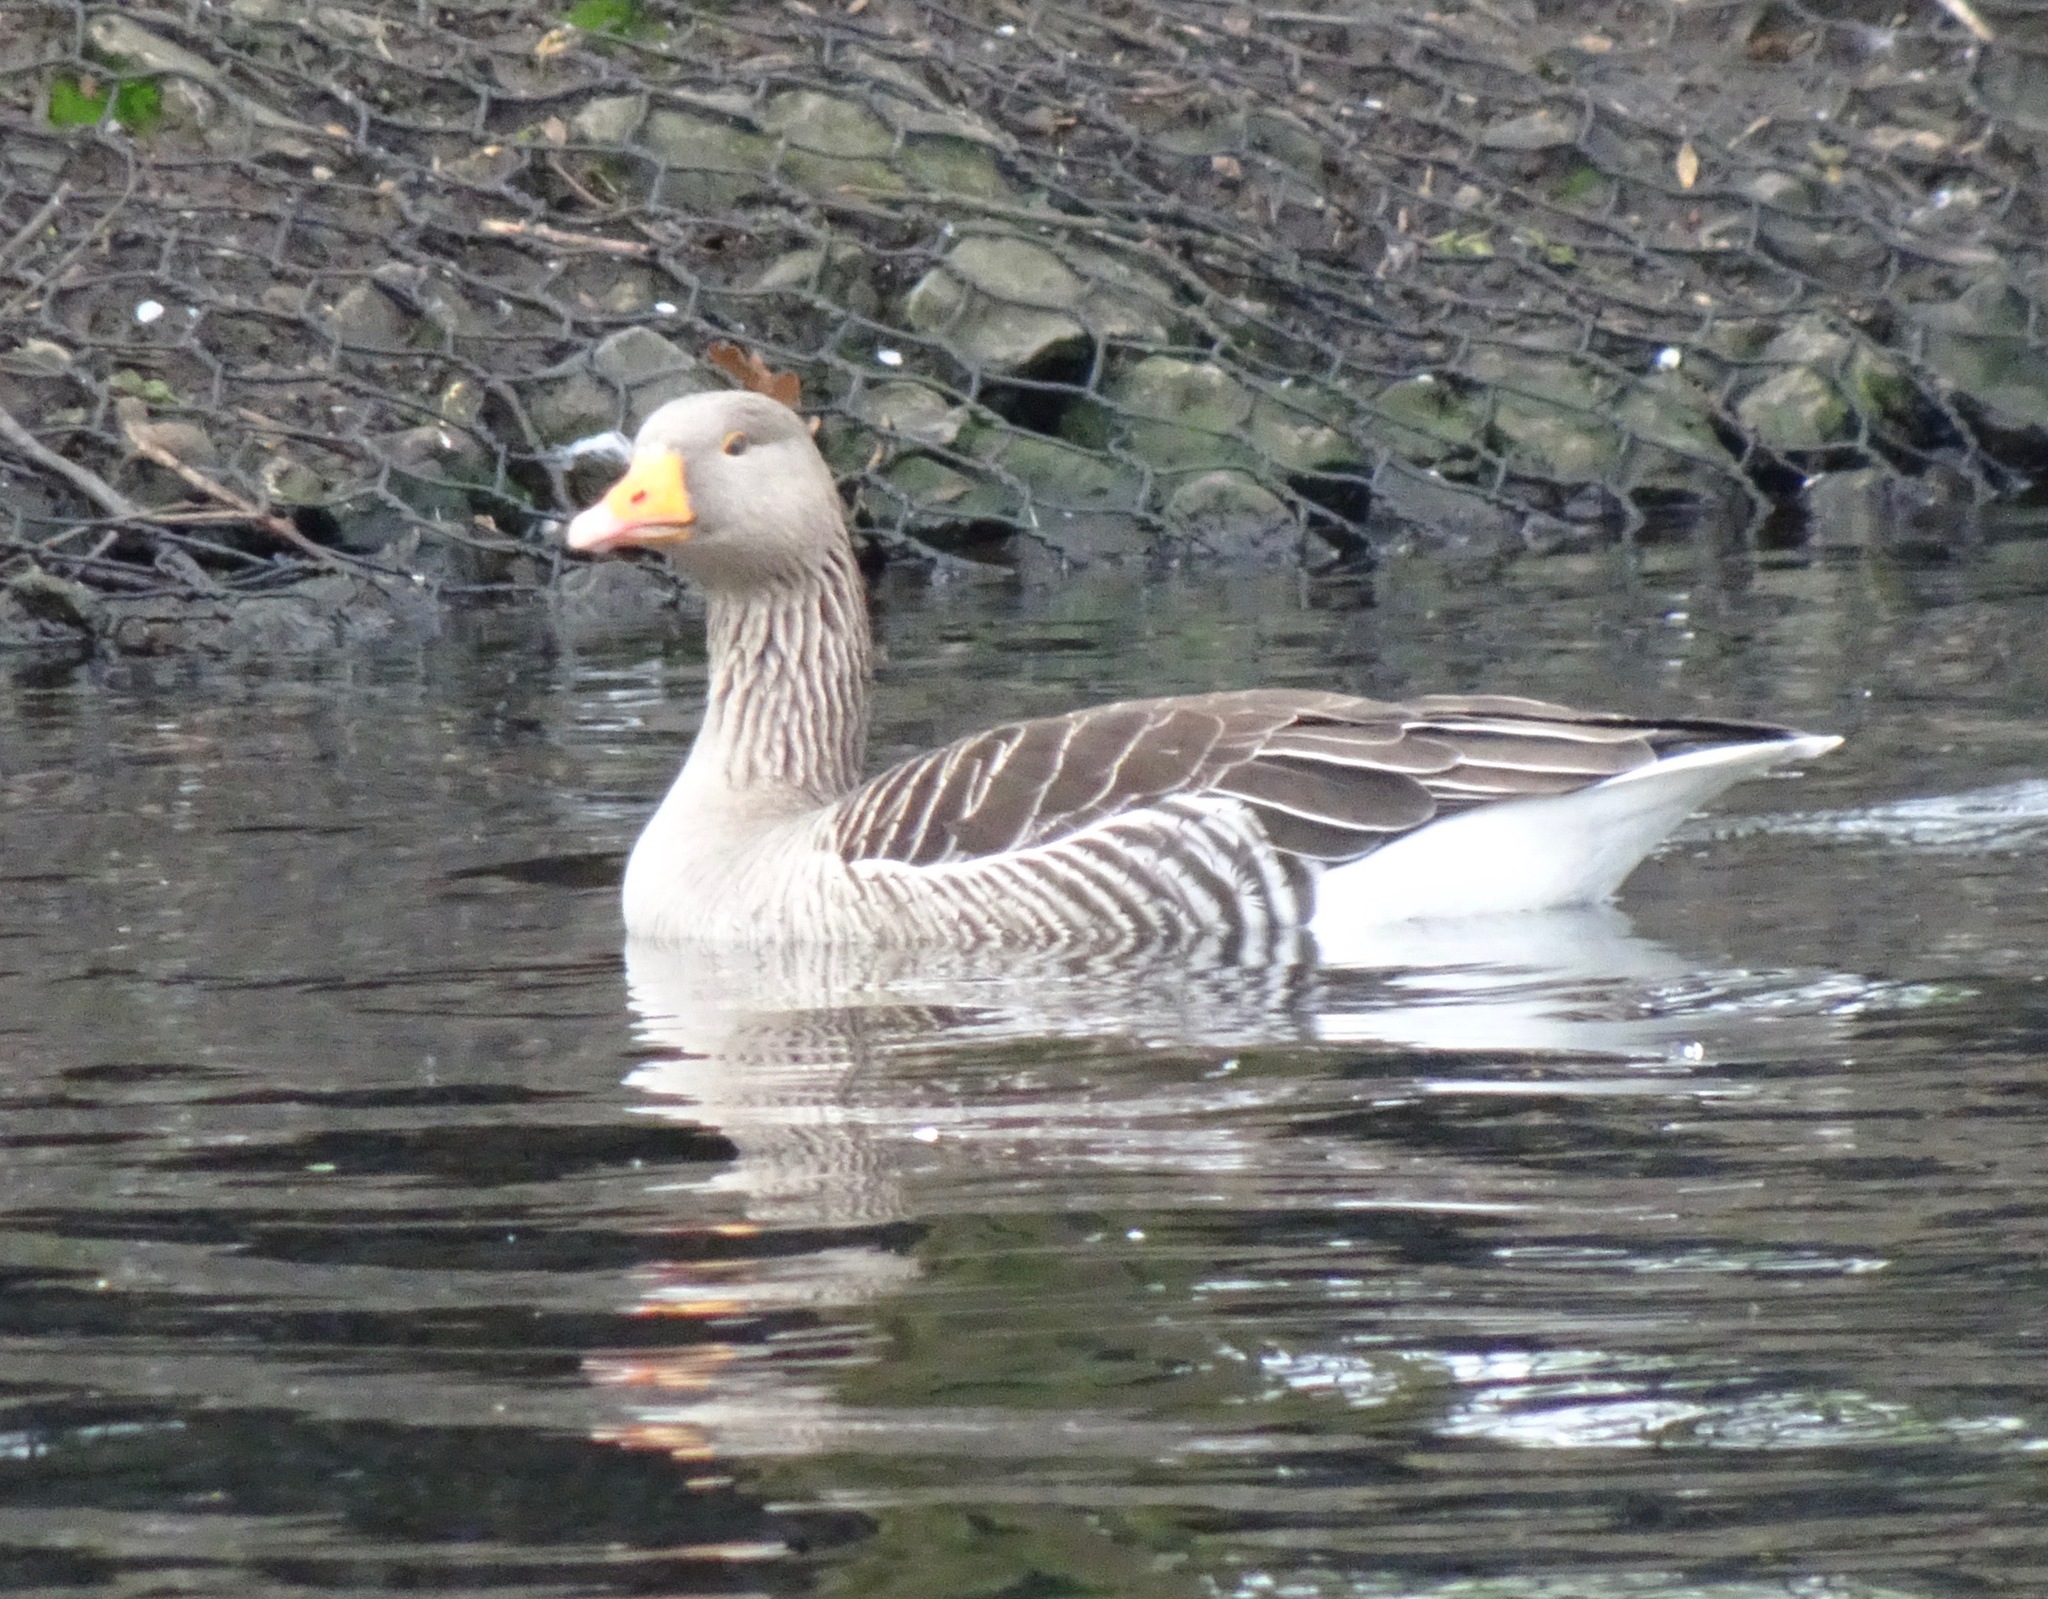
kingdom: Animalia
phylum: Chordata
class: Aves
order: Anseriformes
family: Anatidae
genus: Anser
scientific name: Anser anser
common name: Greylag goose
